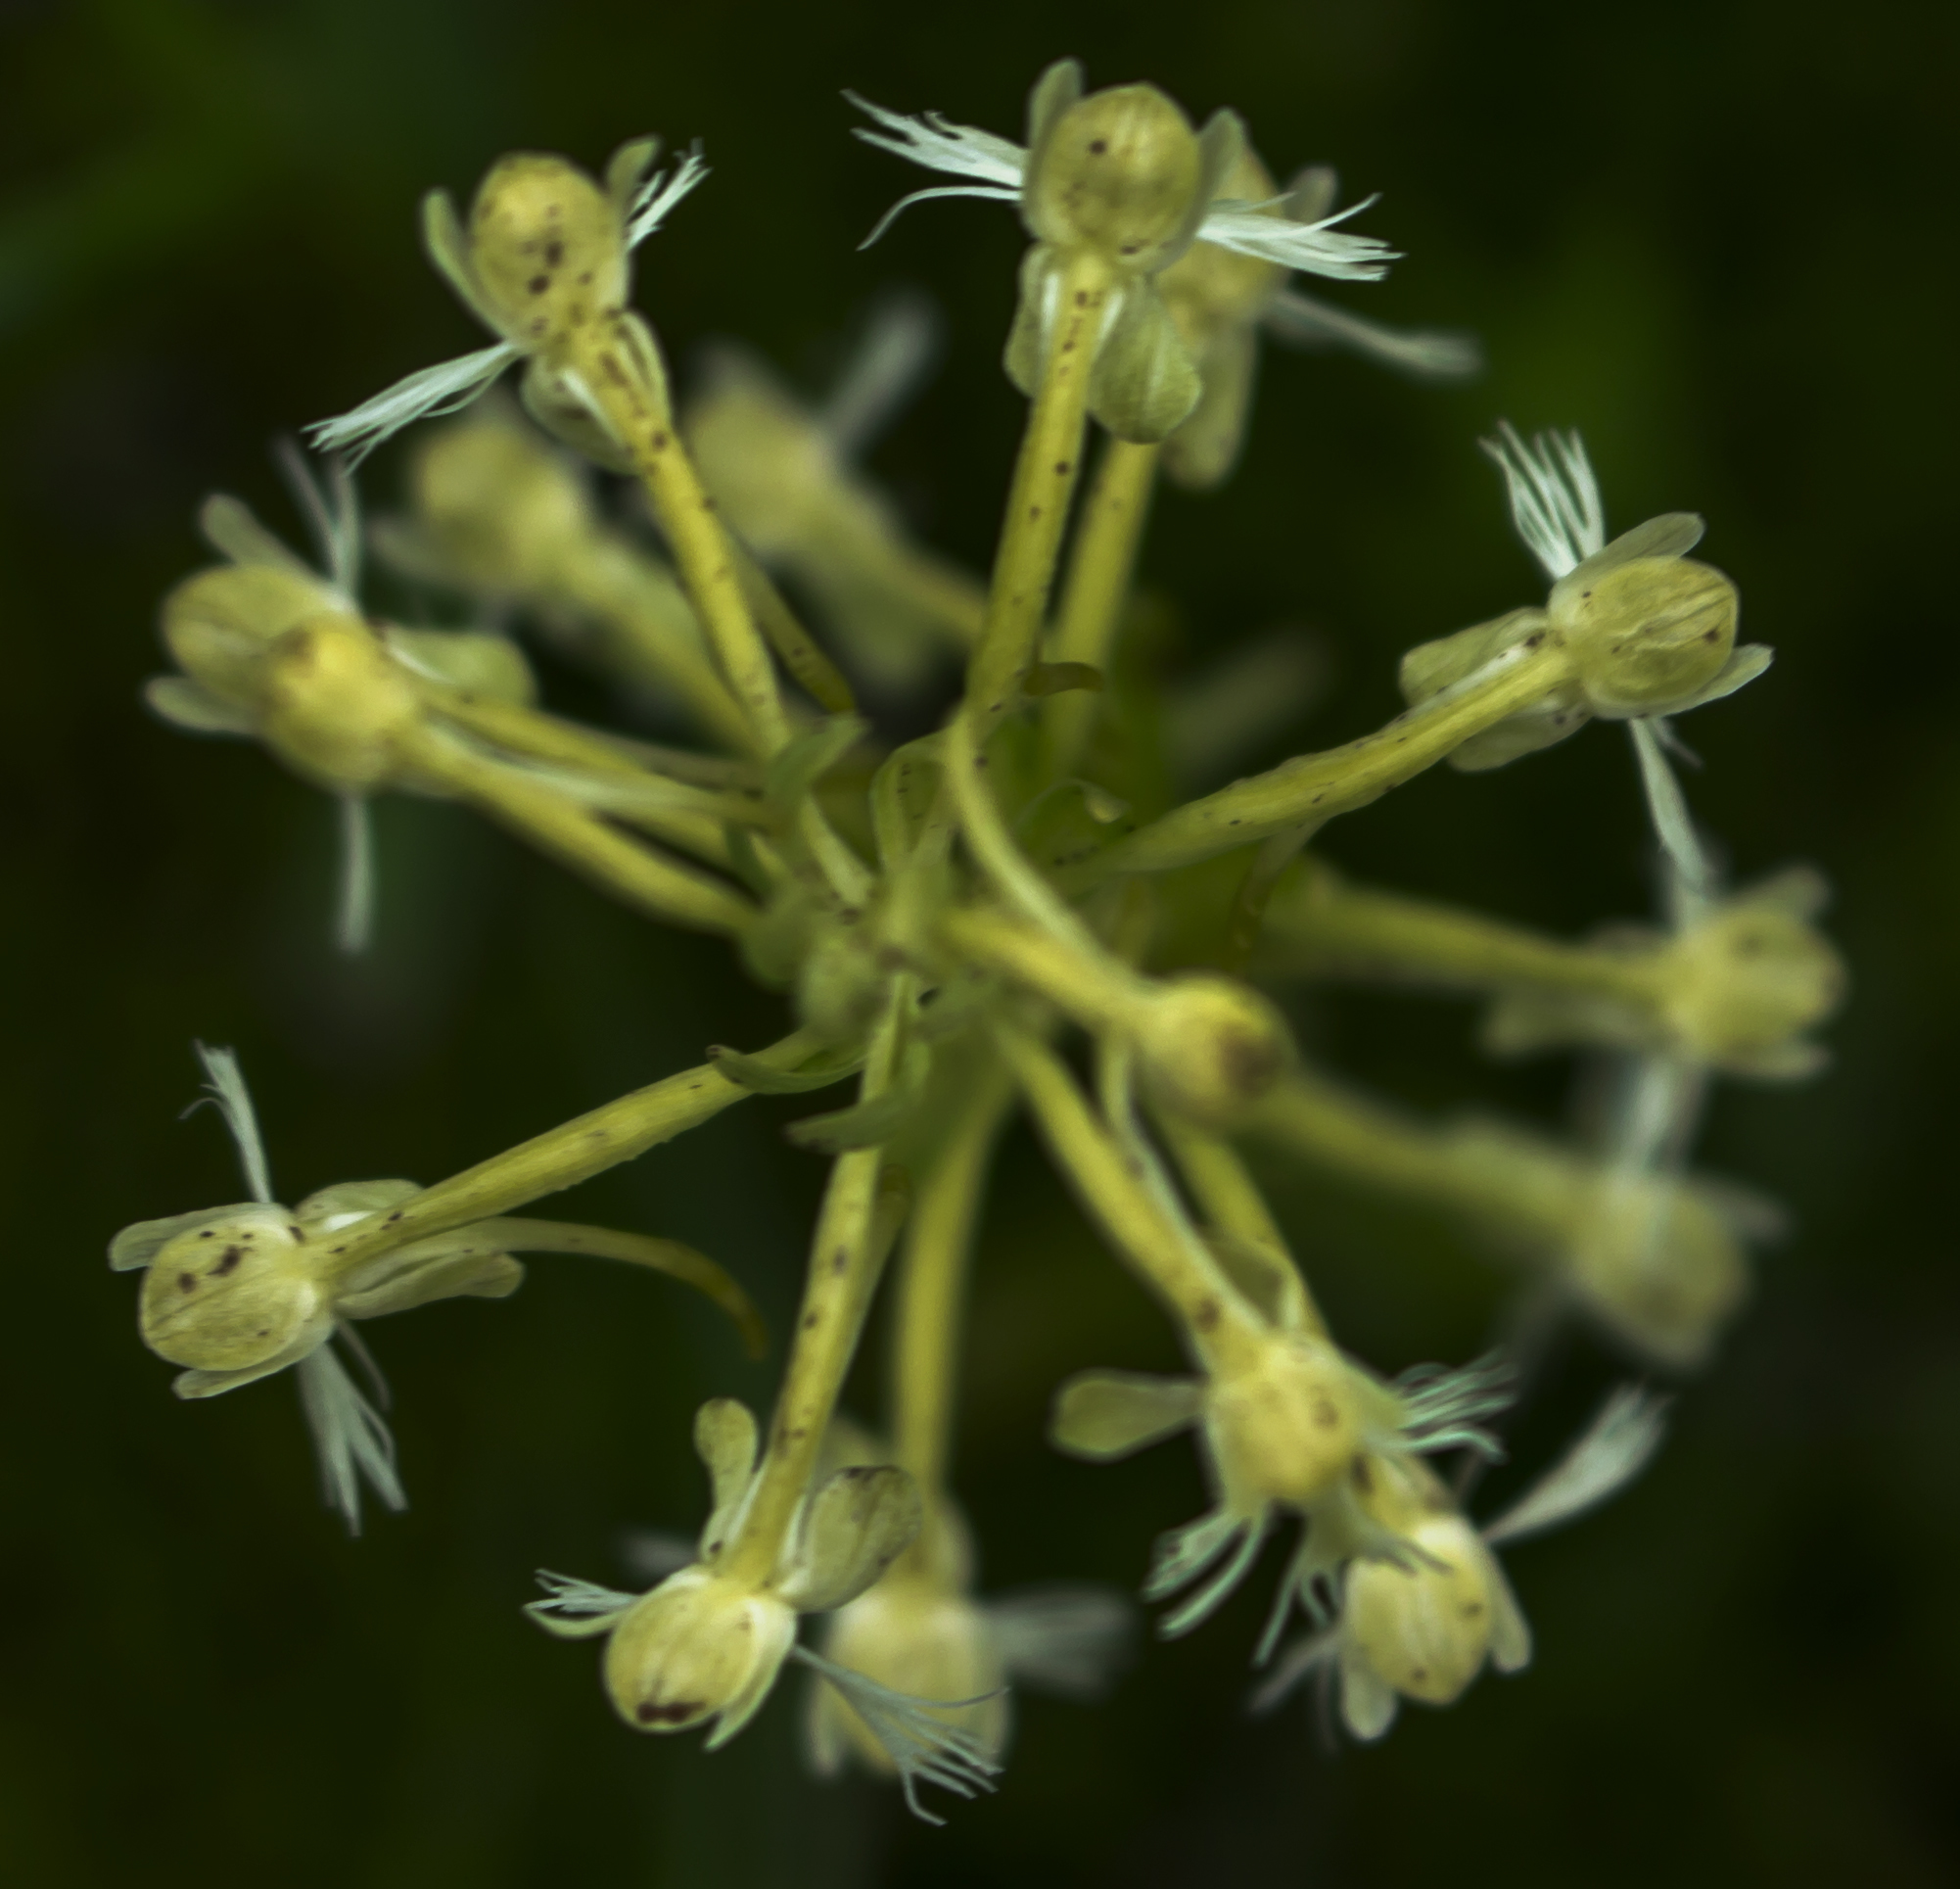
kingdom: Plantae
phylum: Tracheophyta
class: Liliopsida
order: Asparagales
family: Orchidaceae
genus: Platanthera
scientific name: Platanthera lacera
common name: Green fringed orchid
